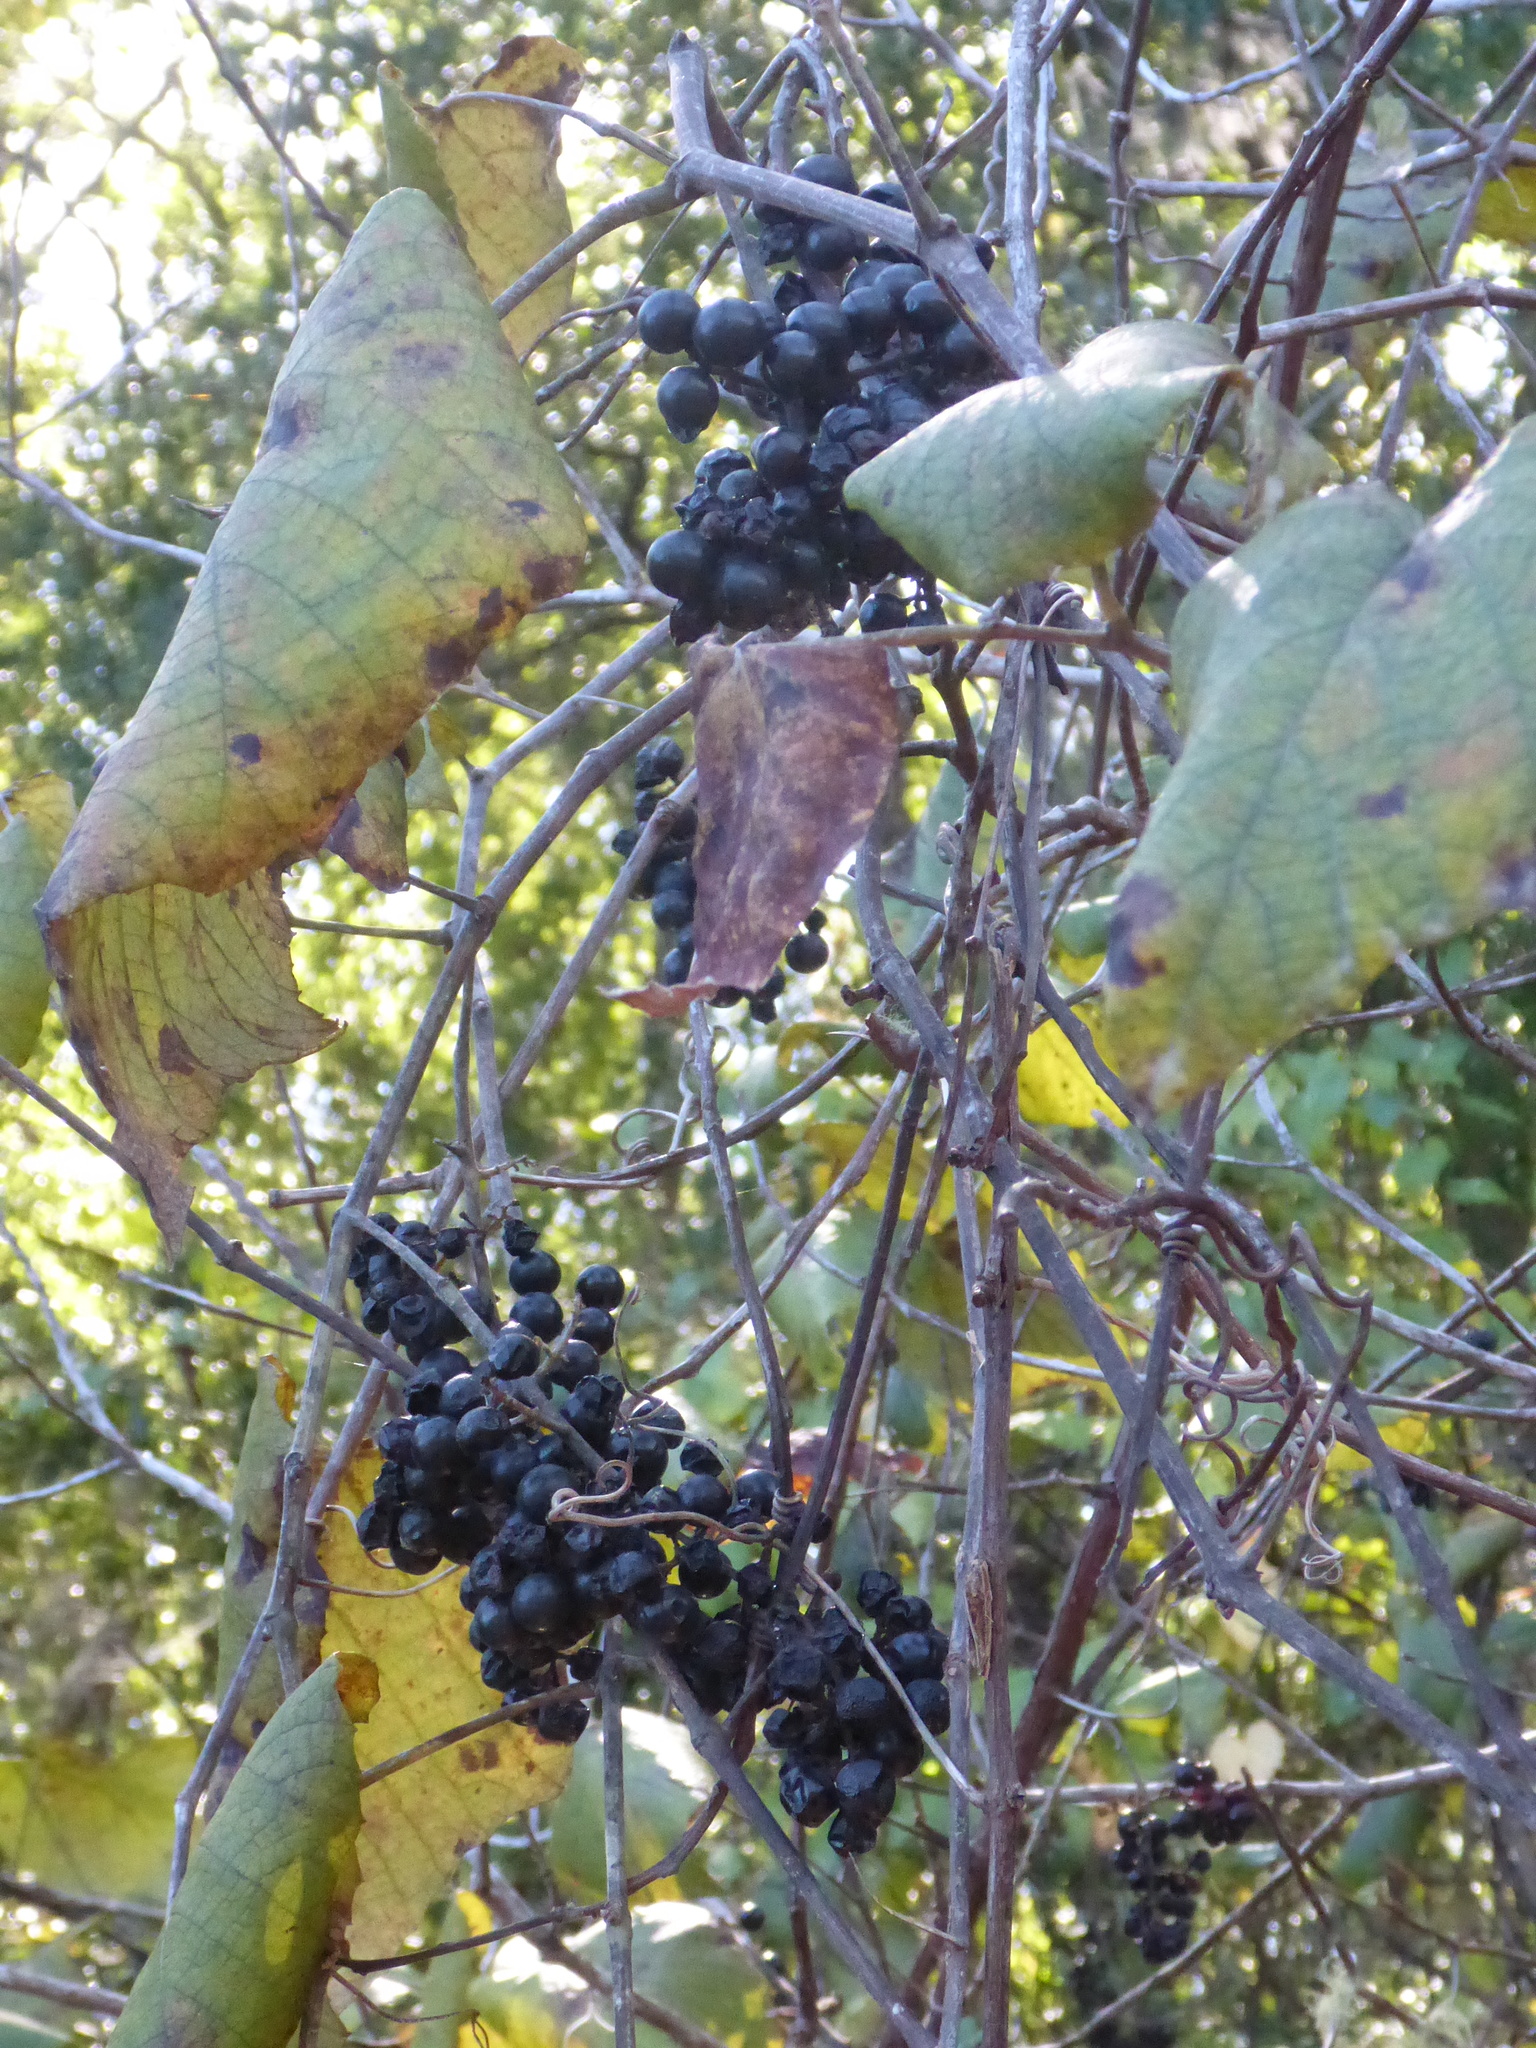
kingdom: Plantae
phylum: Tracheophyta
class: Magnoliopsida
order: Vitales
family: Vitaceae
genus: Vitis
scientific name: Vitis rotundifolia
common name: Muscadine grape
